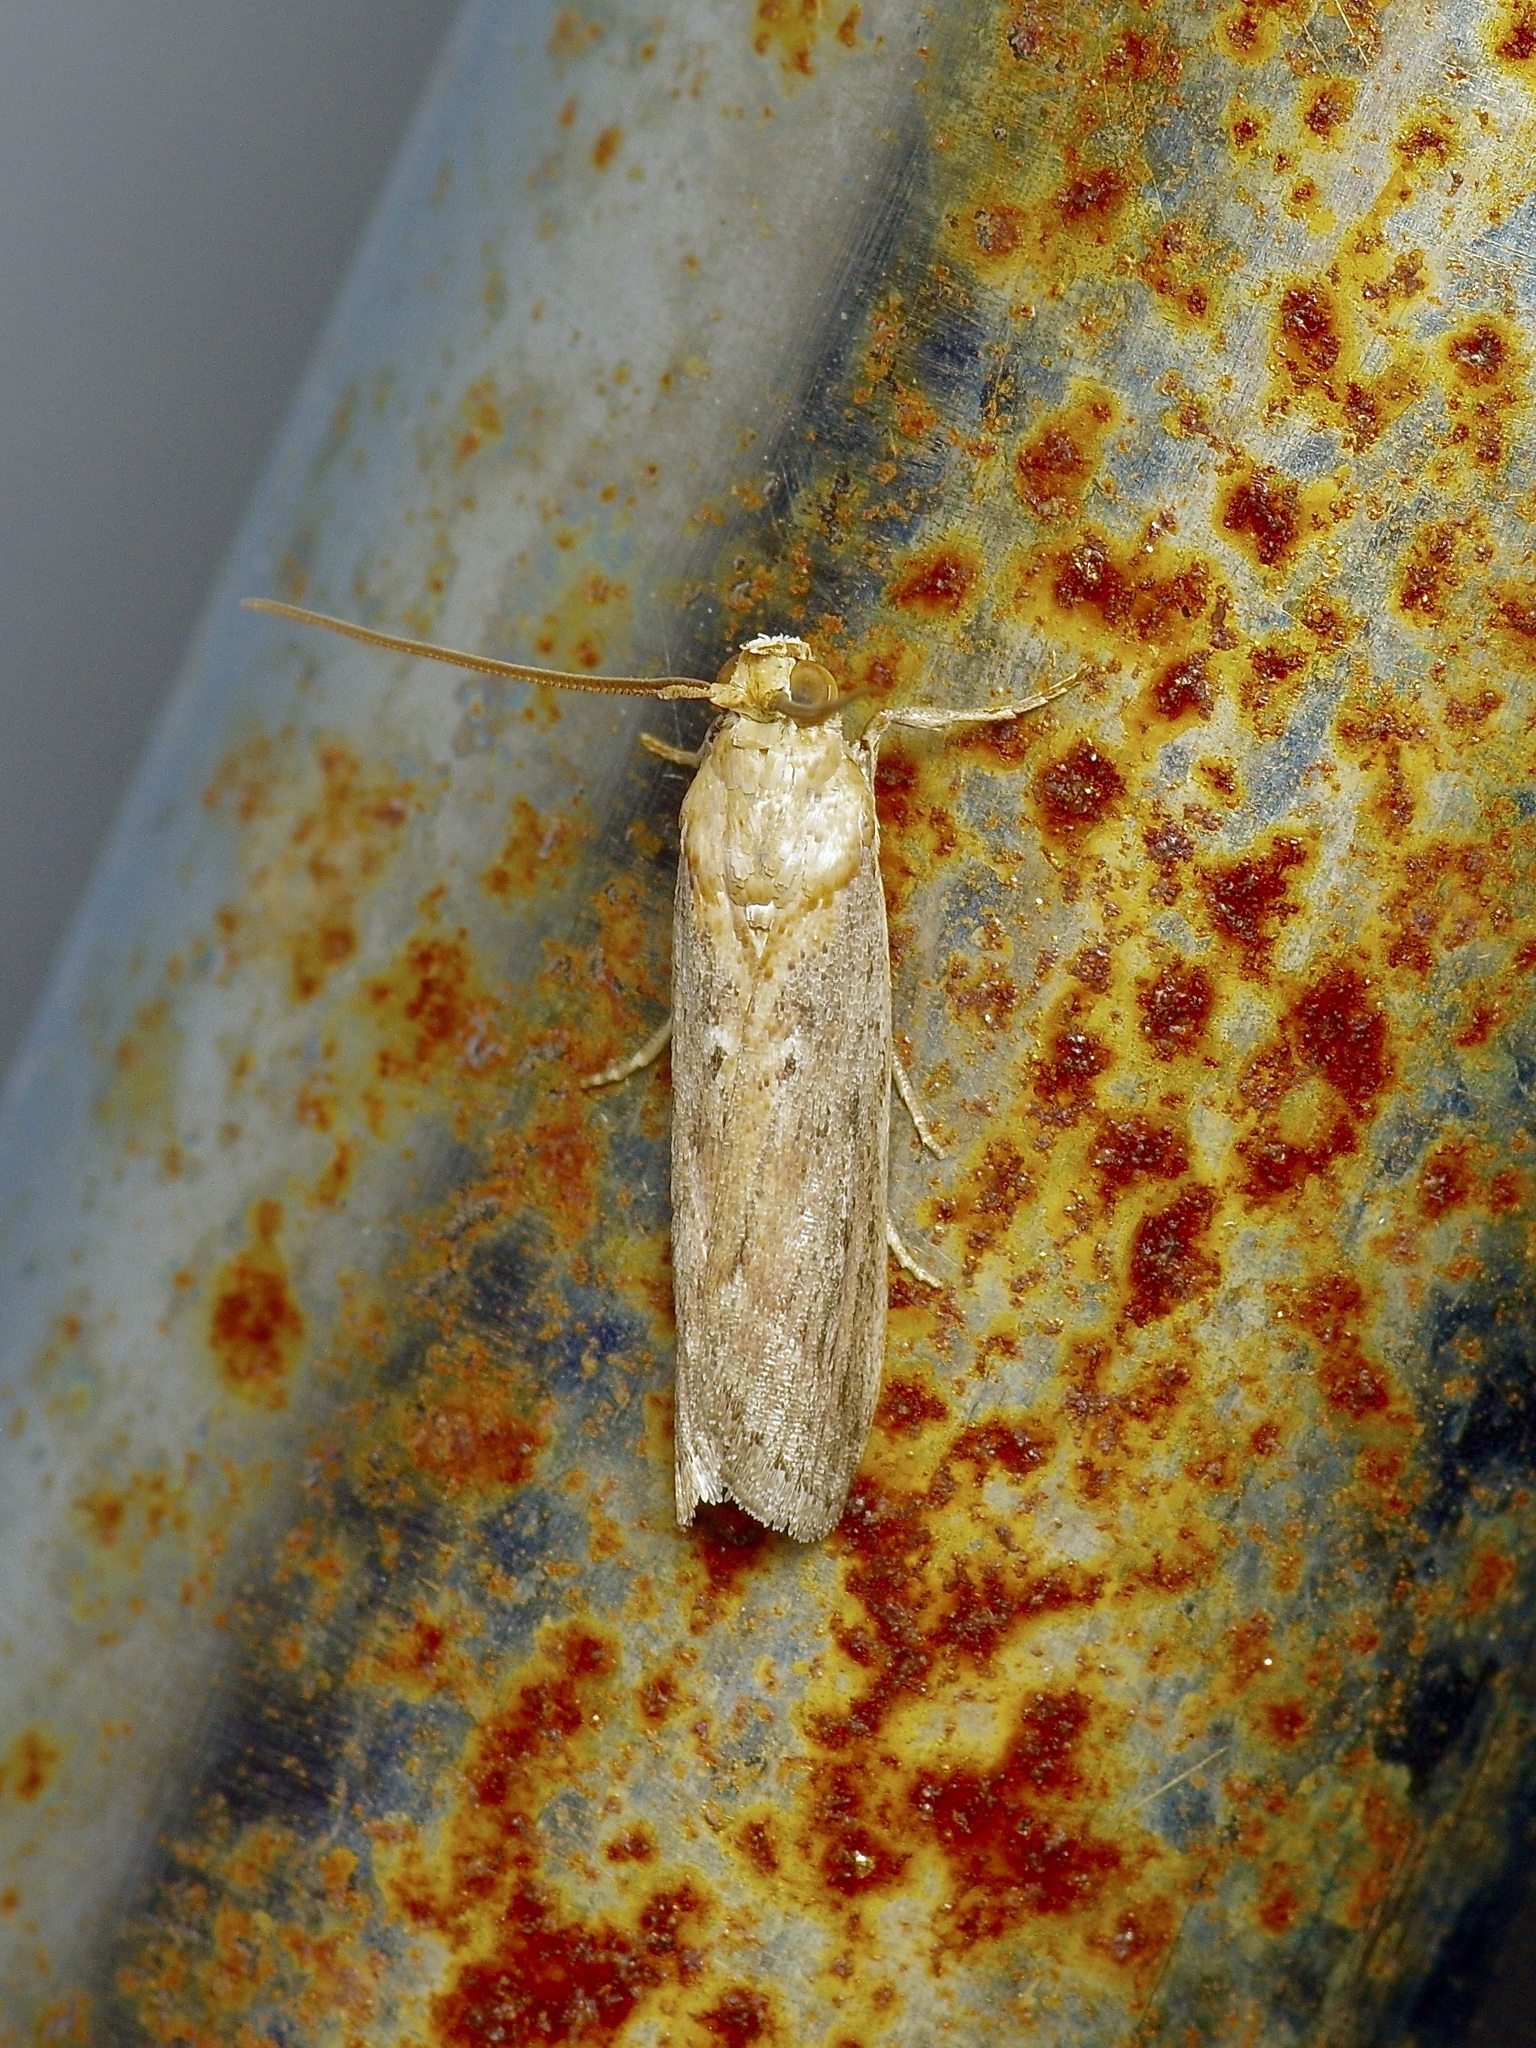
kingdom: Animalia
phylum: Arthropoda
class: Insecta
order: Lepidoptera
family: Pyralidae
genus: Homoeosoma
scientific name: Homoeosoma electella
